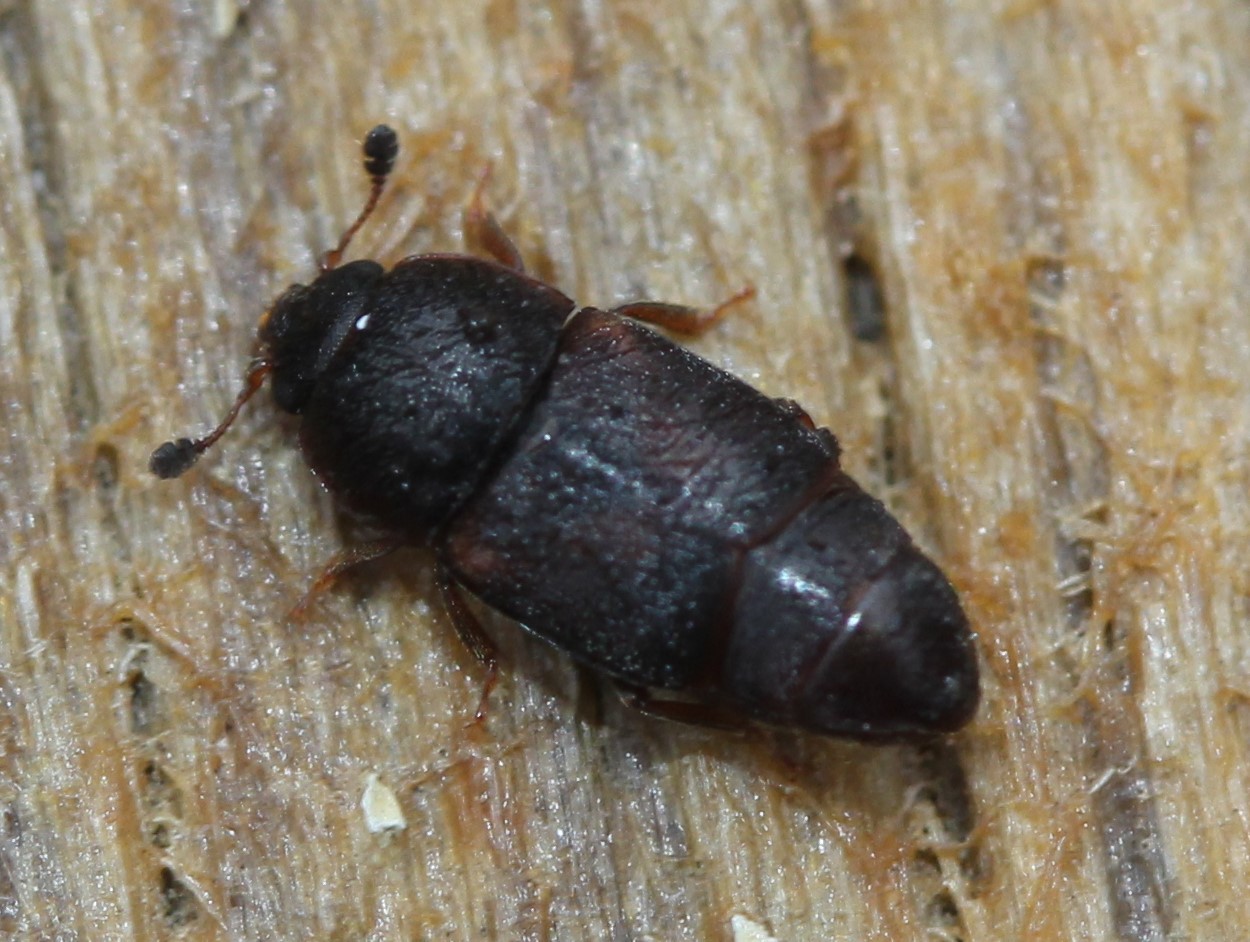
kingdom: Animalia
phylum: Arthropoda
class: Insecta
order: Coleoptera
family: Nitidulidae
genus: Carpophilus
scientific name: Carpophilus
